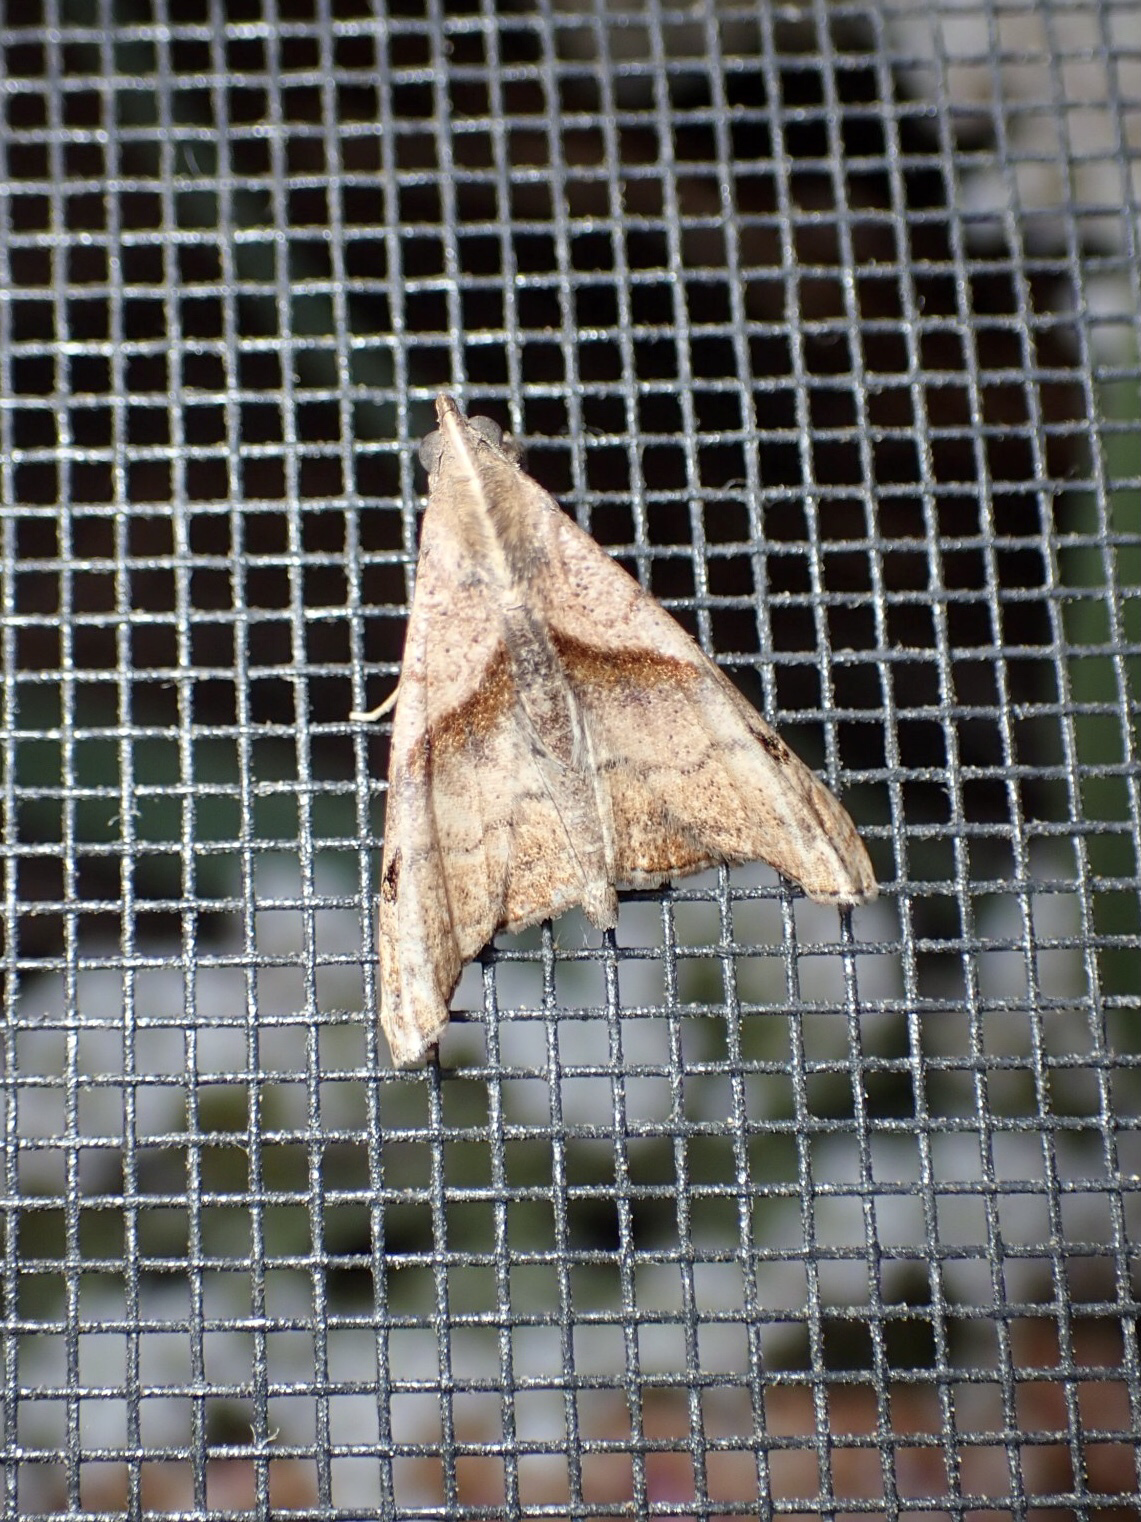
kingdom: Animalia
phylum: Arthropoda
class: Insecta
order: Lepidoptera
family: Erebidae
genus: Palthis
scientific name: Palthis angulalis
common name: Dark-spotted palthis moth
